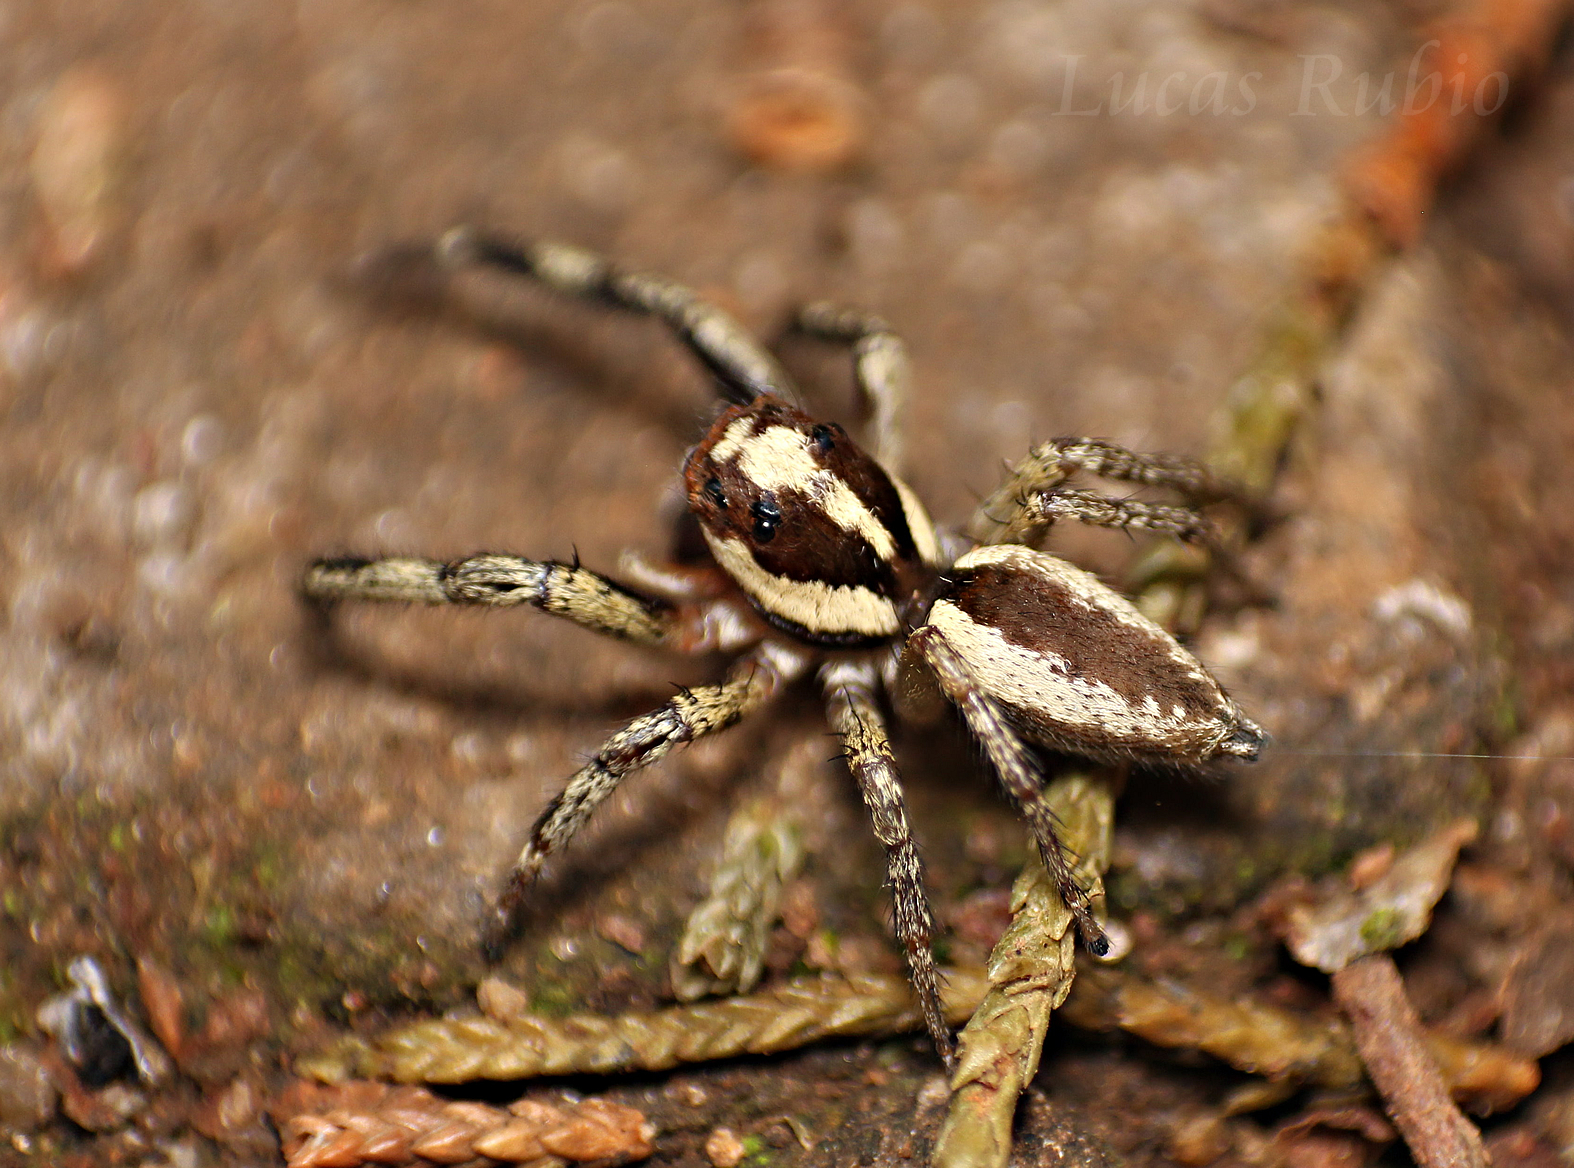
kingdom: Animalia
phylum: Arthropoda
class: Arachnida
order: Araneae
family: Salticidae
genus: Chira
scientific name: Chira lucina
